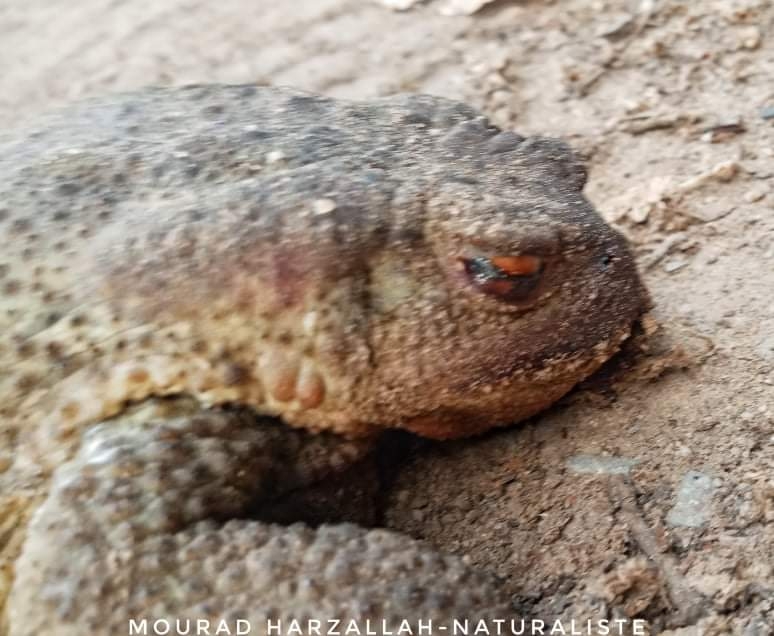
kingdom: Animalia
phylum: Chordata
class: Amphibia
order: Anura
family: Bufonidae
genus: Bufo
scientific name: Bufo spinosus
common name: Western common toad
